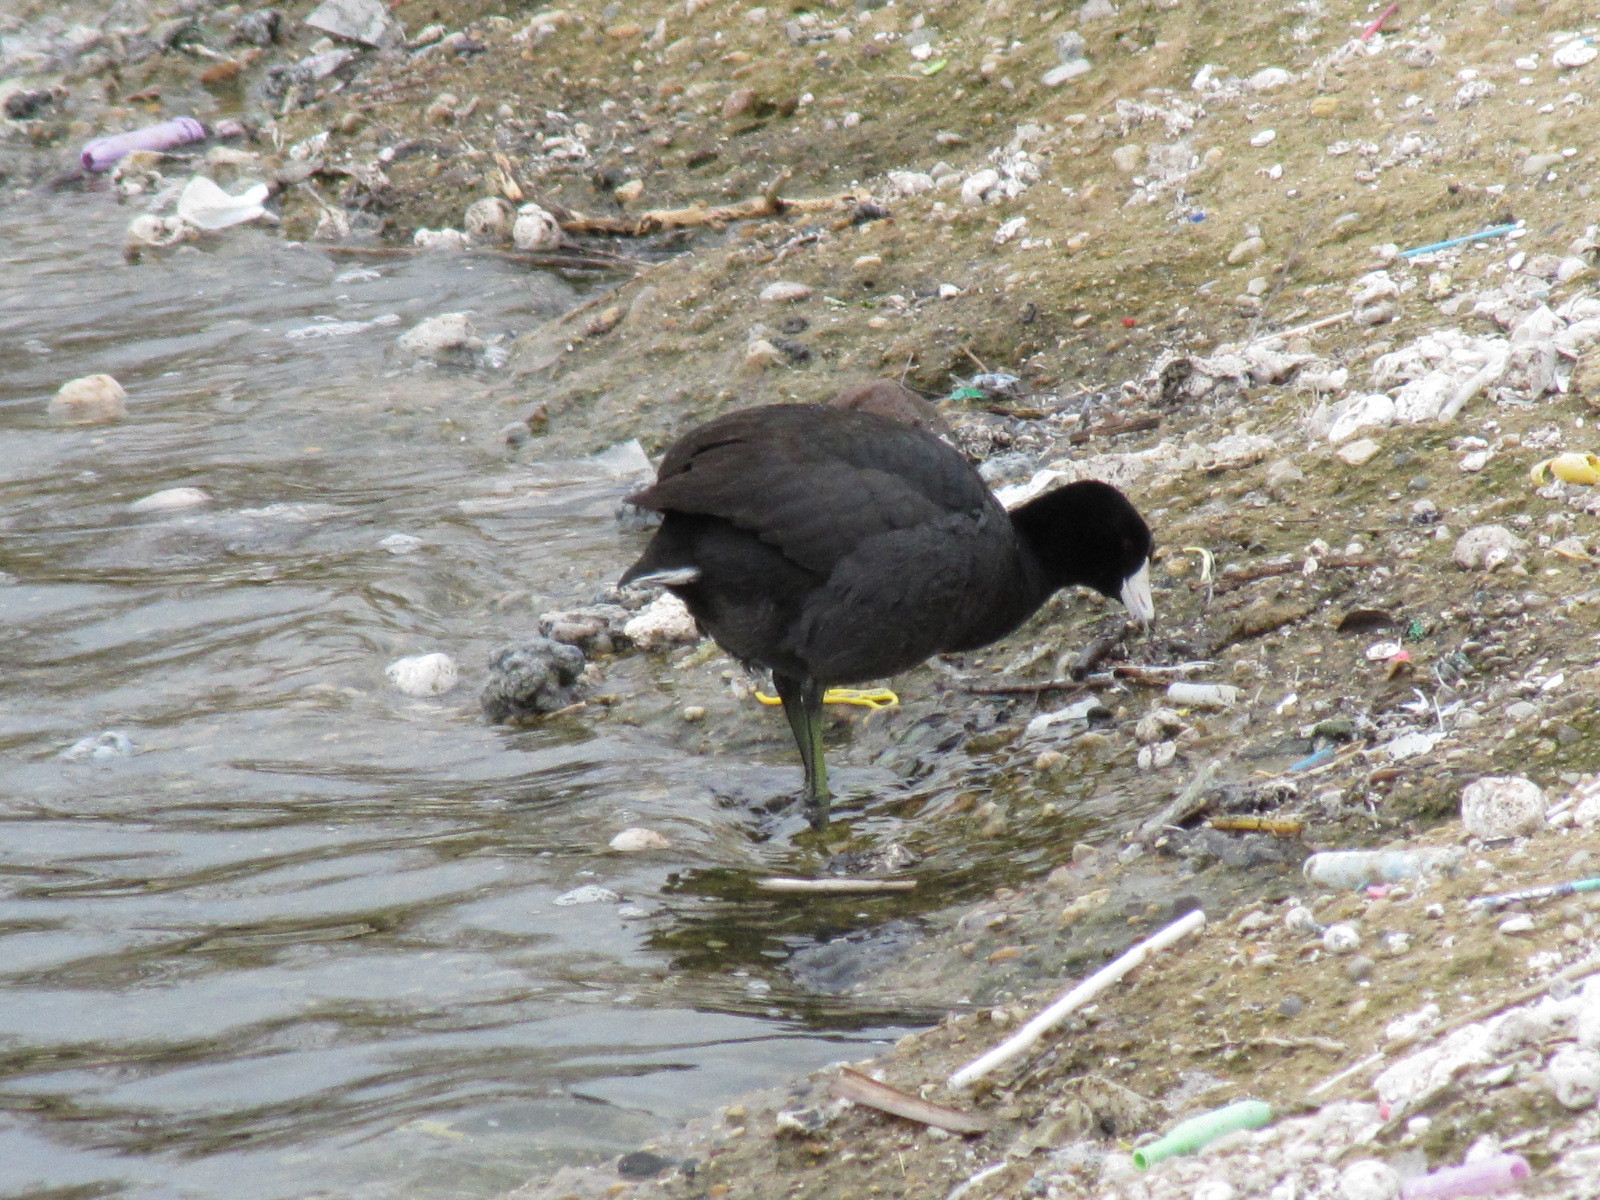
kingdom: Animalia
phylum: Chordata
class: Aves
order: Gruiformes
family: Rallidae
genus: Fulica
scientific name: Fulica americana
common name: American coot
